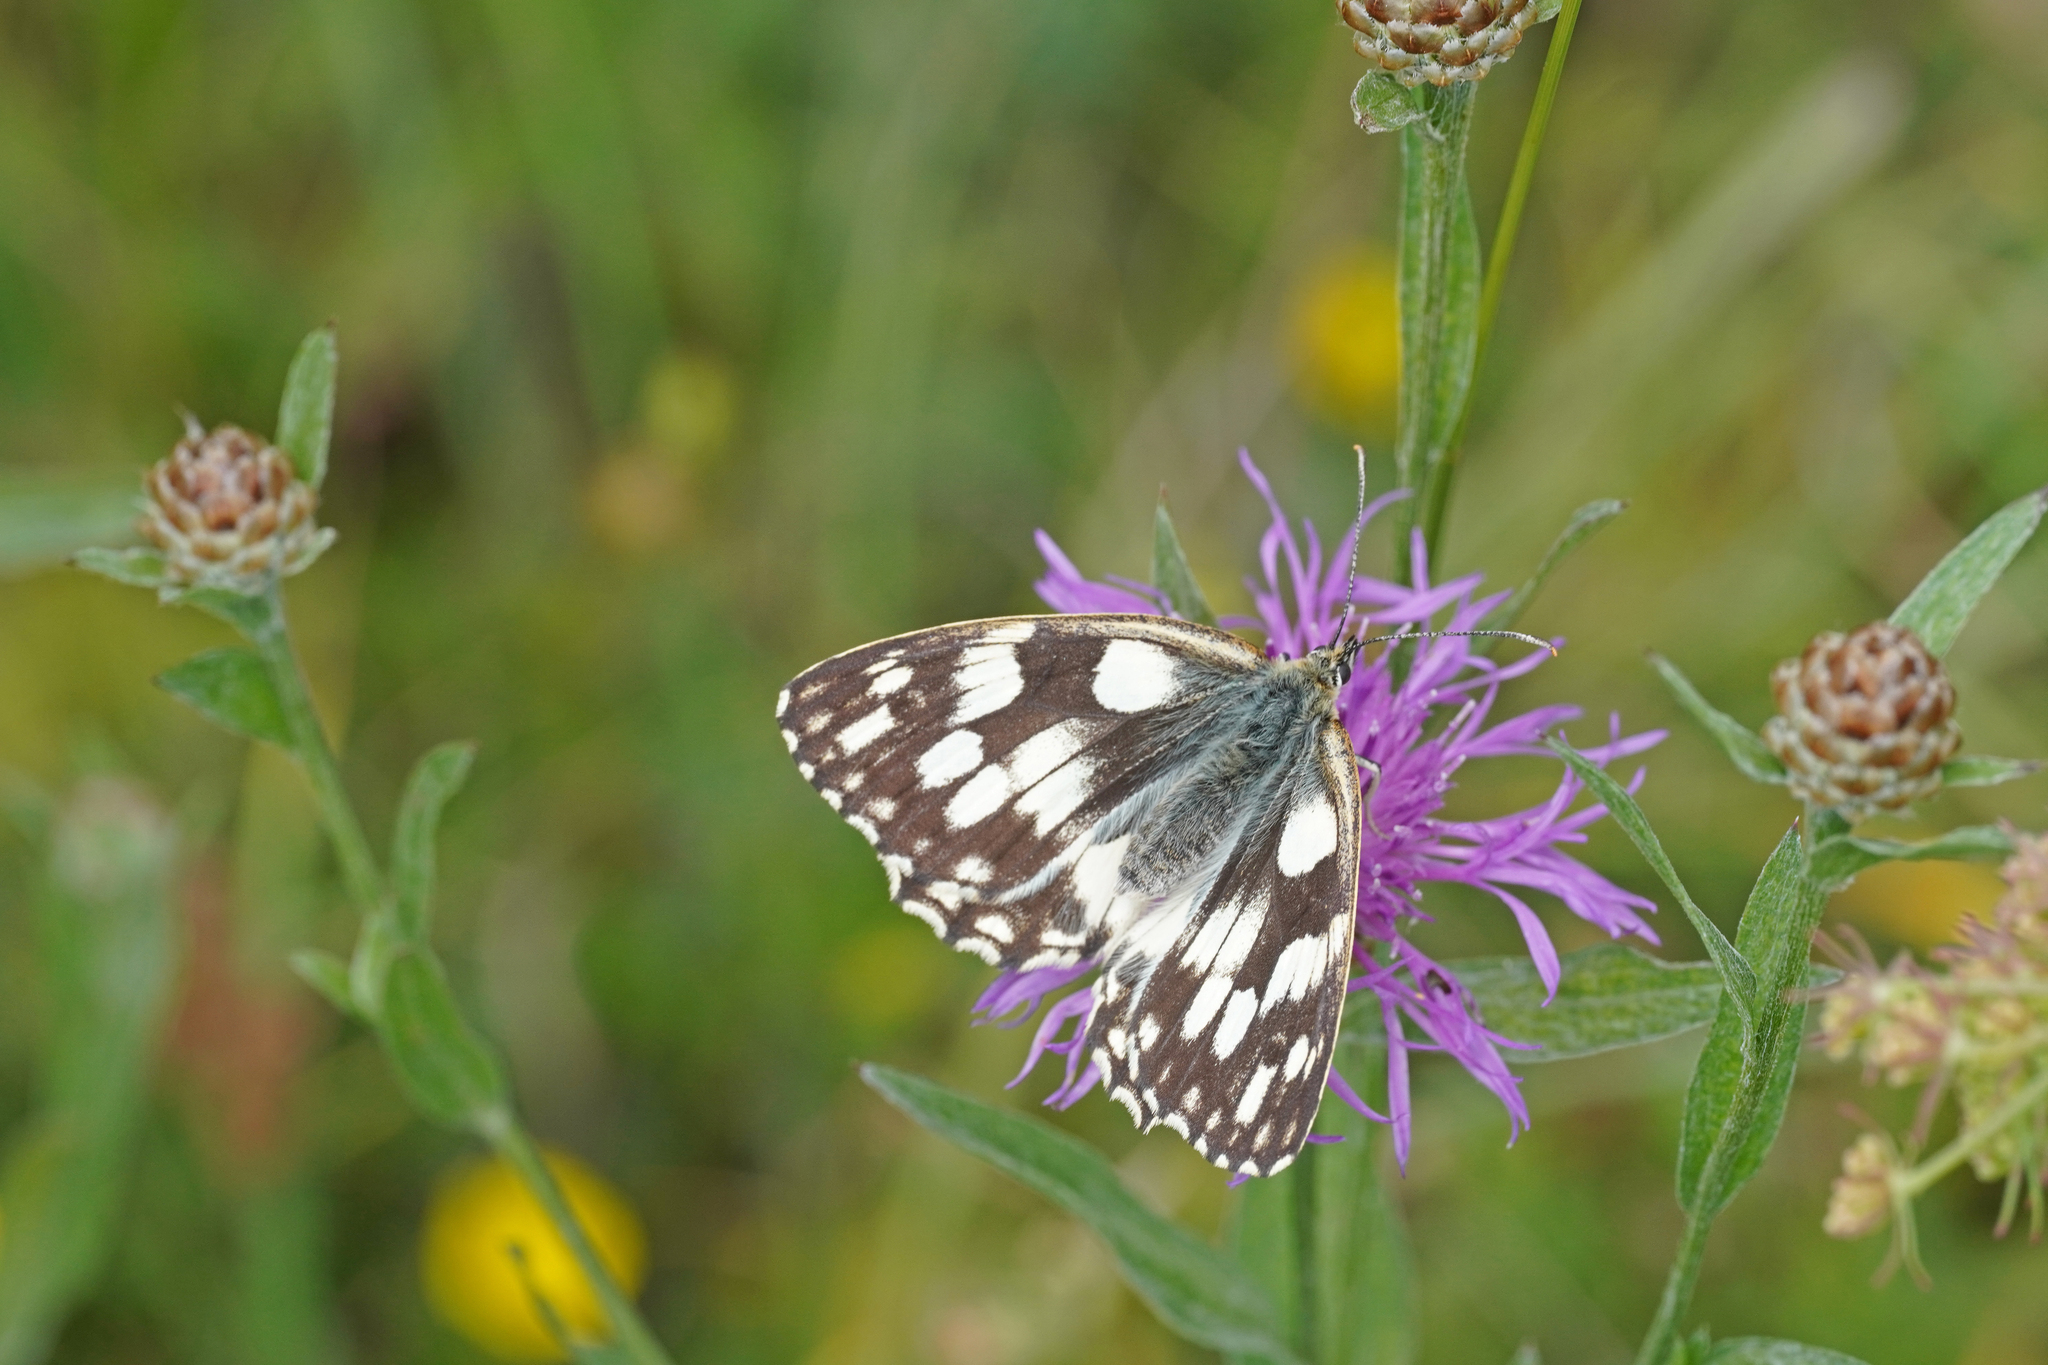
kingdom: Animalia
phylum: Arthropoda
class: Insecta
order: Lepidoptera
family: Nymphalidae
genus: Melanargia
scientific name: Melanargia galathea
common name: Marbled white
